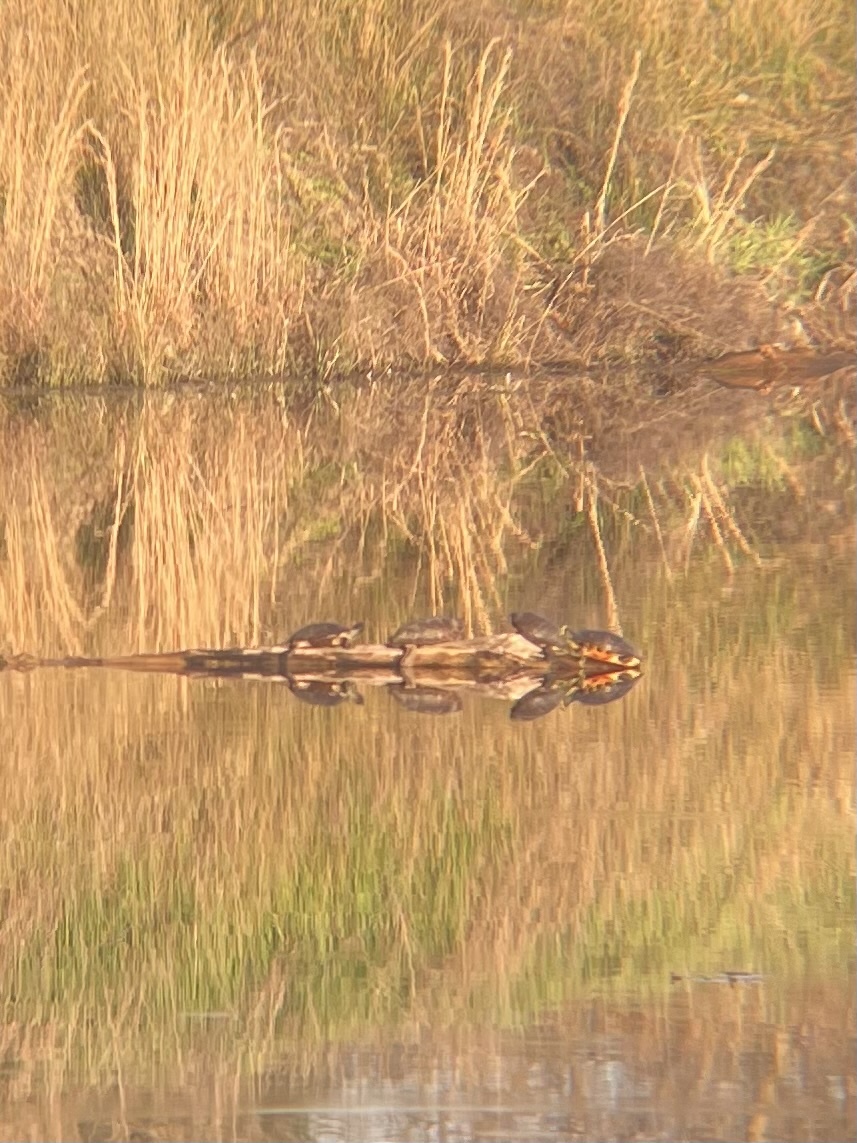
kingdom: Animalia
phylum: Chordata
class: Testudines
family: Emydidae
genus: Trachemys
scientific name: Trachemys scripta
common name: Slider
